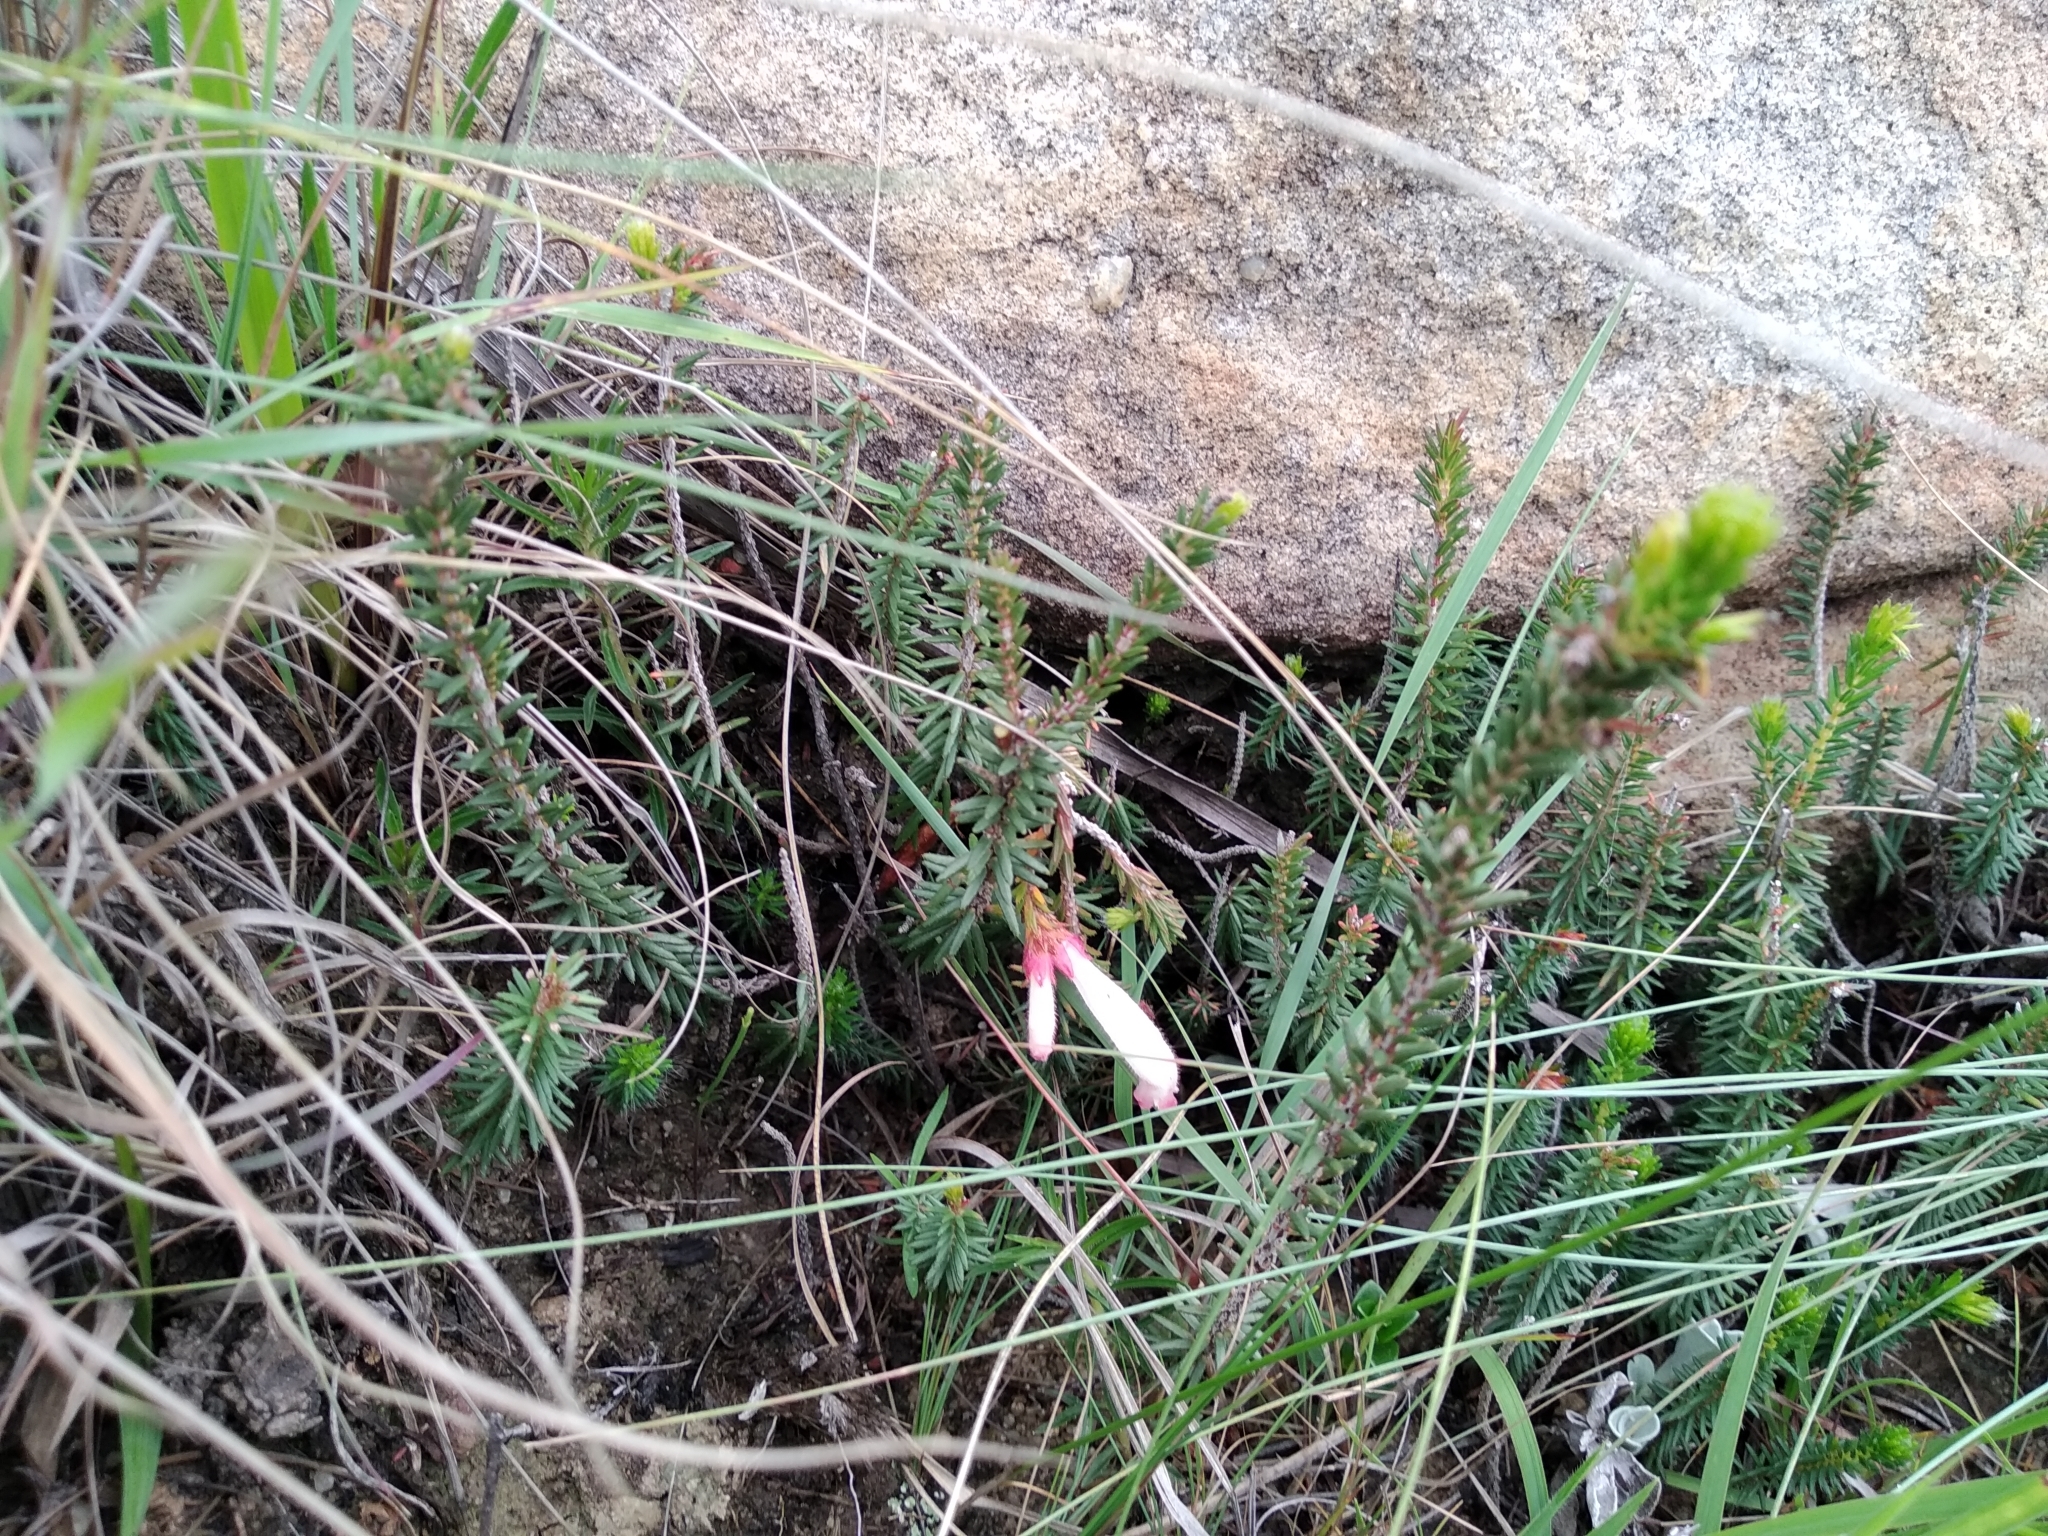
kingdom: Plantae
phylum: Tracheophyta
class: Magnoliopsida
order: Ericales
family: Ericaceae
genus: Erica
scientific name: Erica cerinthoides
